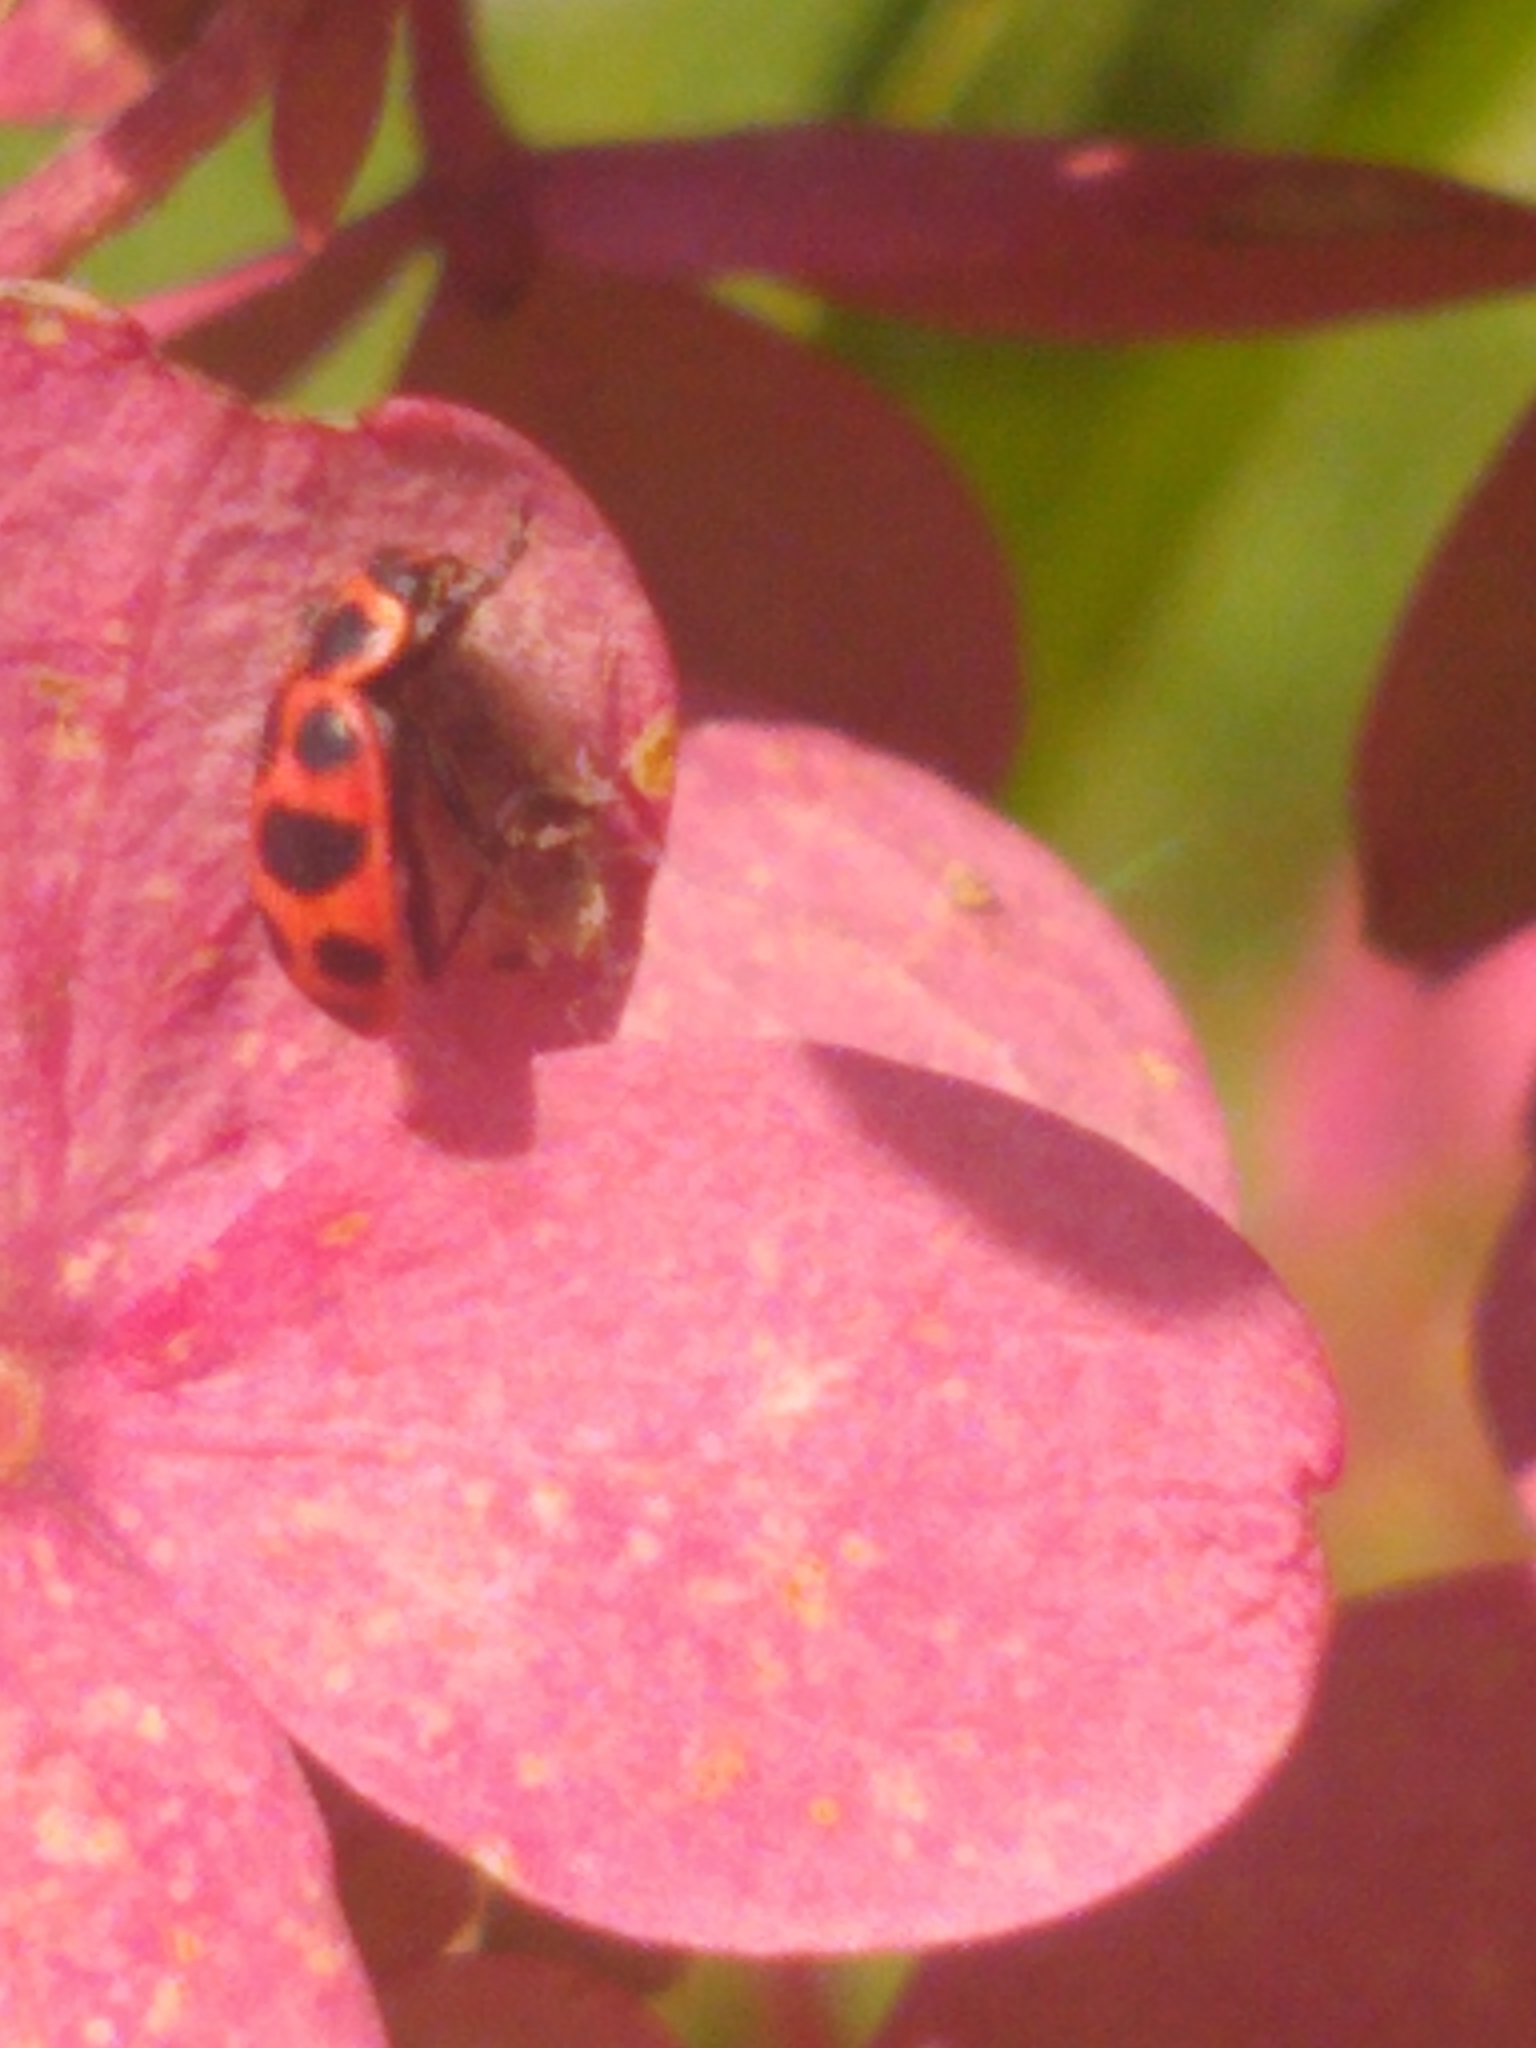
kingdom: Animalia
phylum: Arthropoda
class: Insecta
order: Coleoptera
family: Coccinellidae
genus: Coleomegilla
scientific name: Coleomegilla maculata
